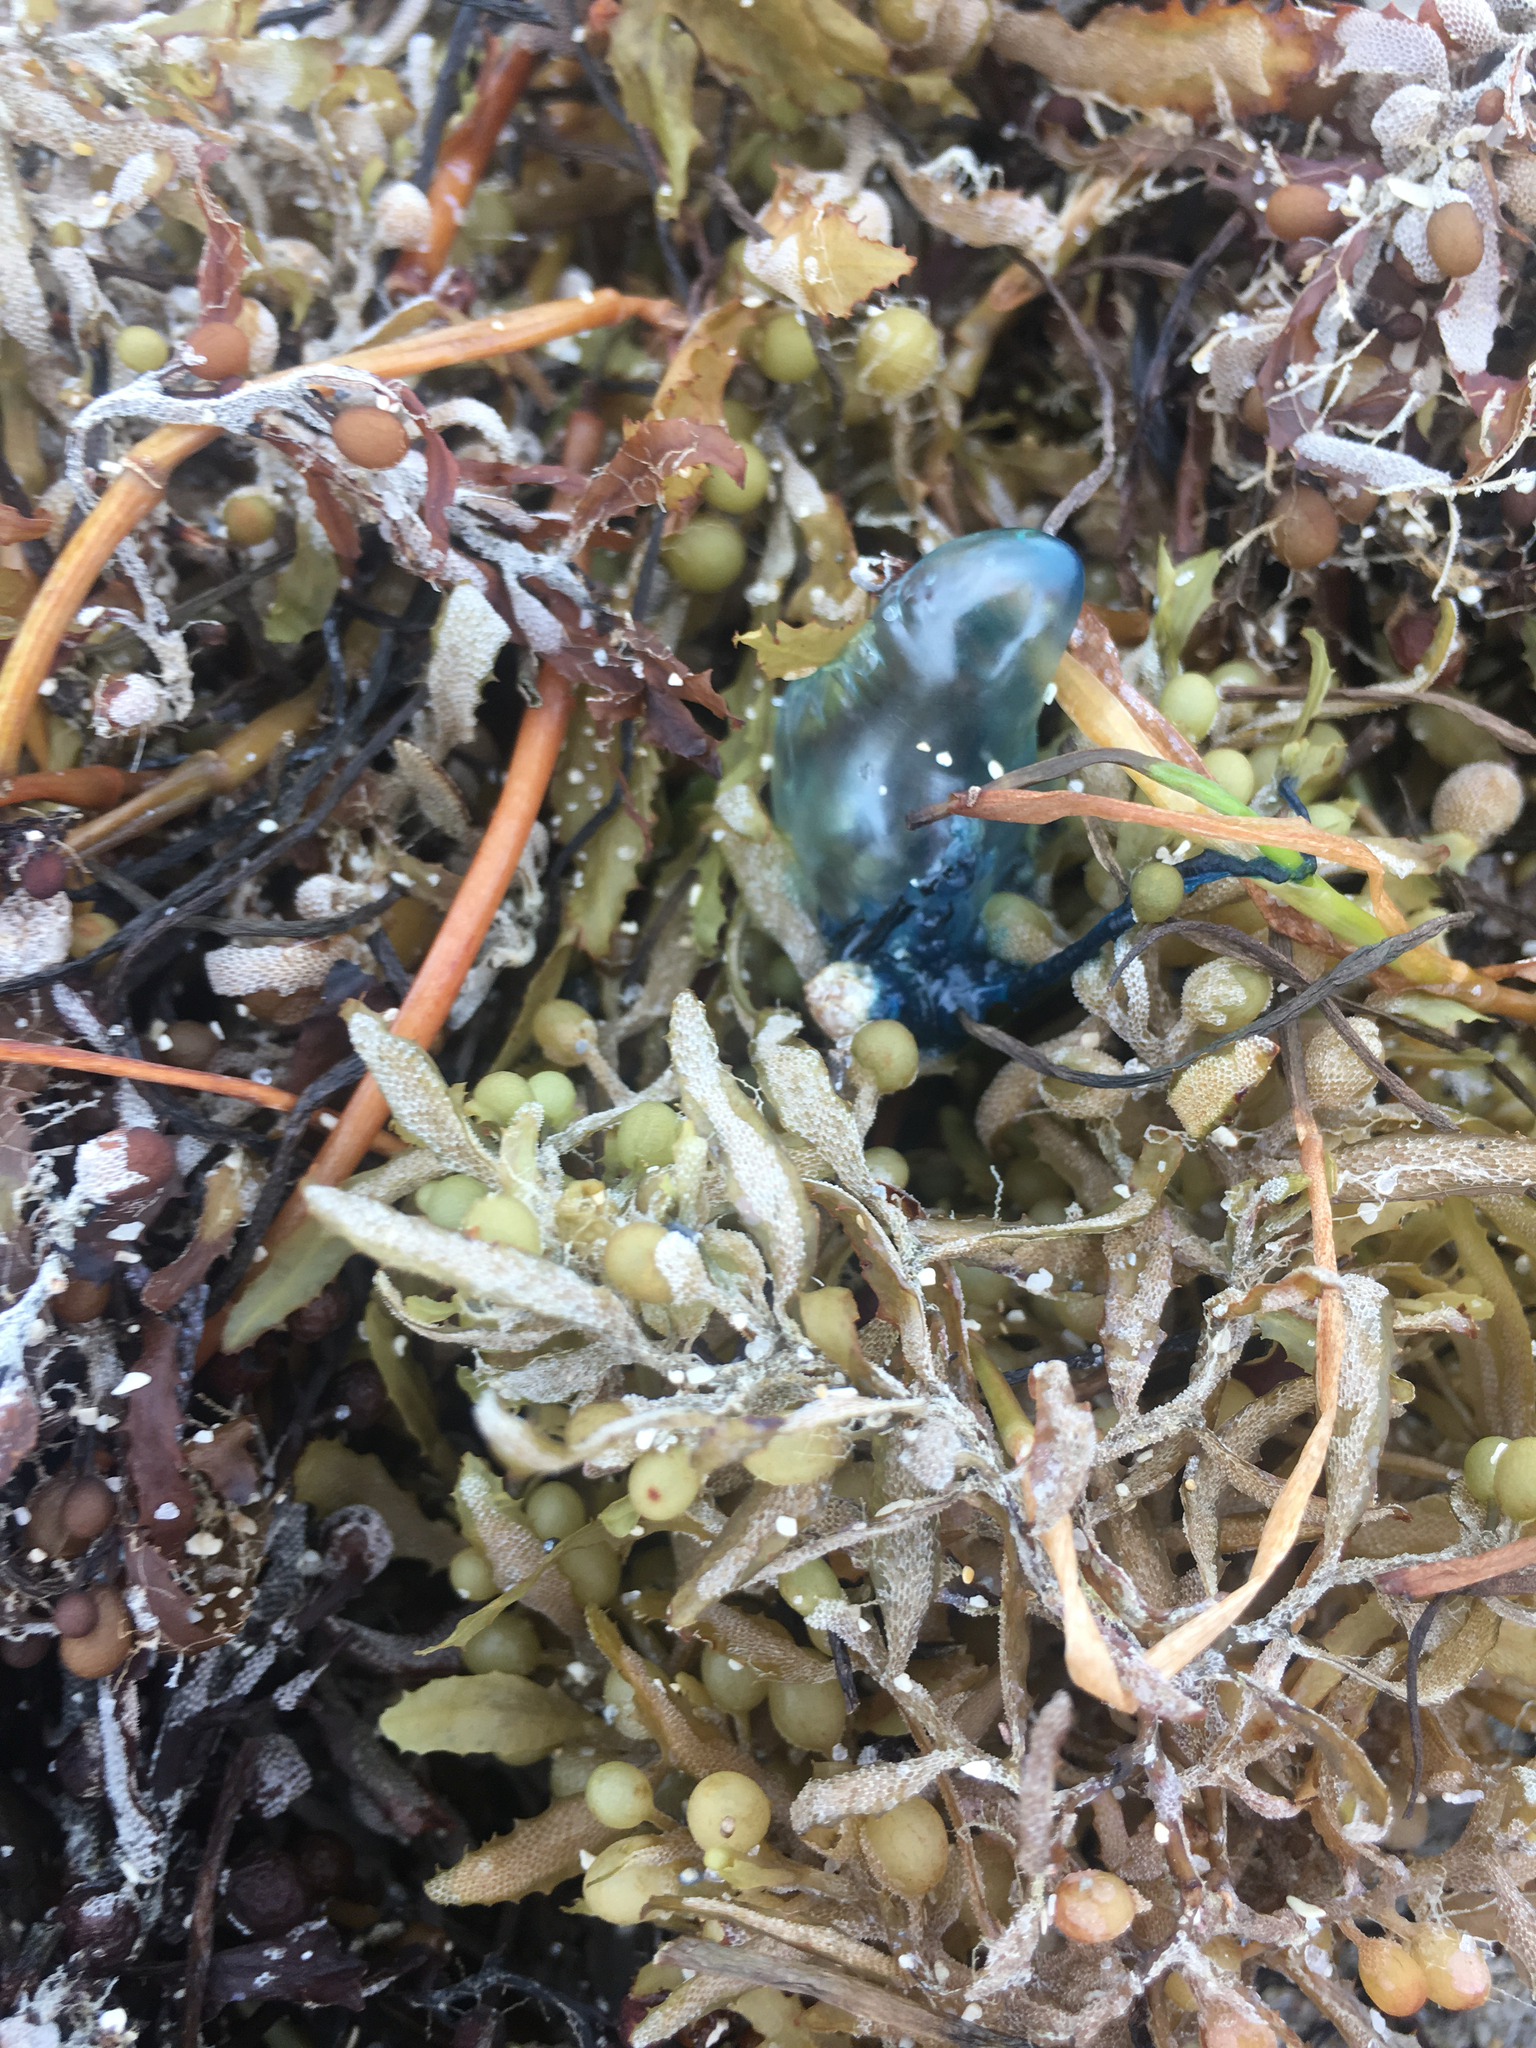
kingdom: Animalia
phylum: Cnidaria
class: Hydrozoa
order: Siphonophorae
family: Physaliidae
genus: Physalia
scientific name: Physalia physalis
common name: Portuguese man-of-war
